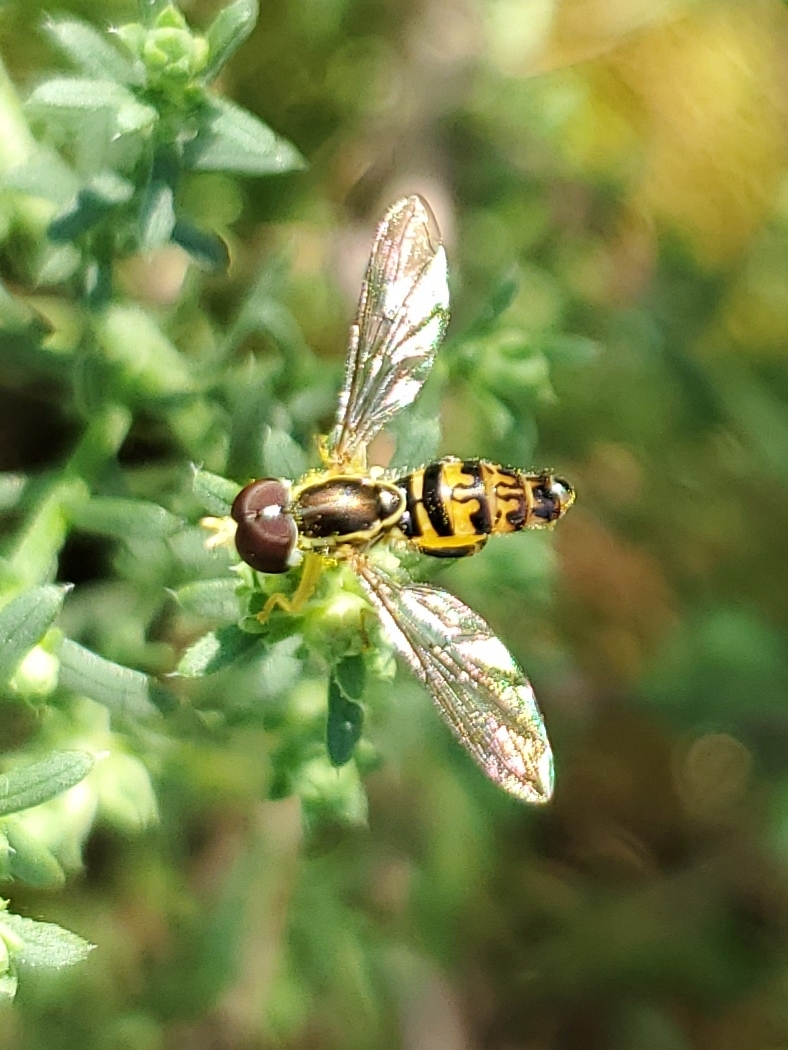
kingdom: Animalia
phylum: Arthropoda
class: Insecta
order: Diptera
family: Syrphidae
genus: Toxomerus
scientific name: Toxomerus geminatus
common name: Eastern calligrapher
